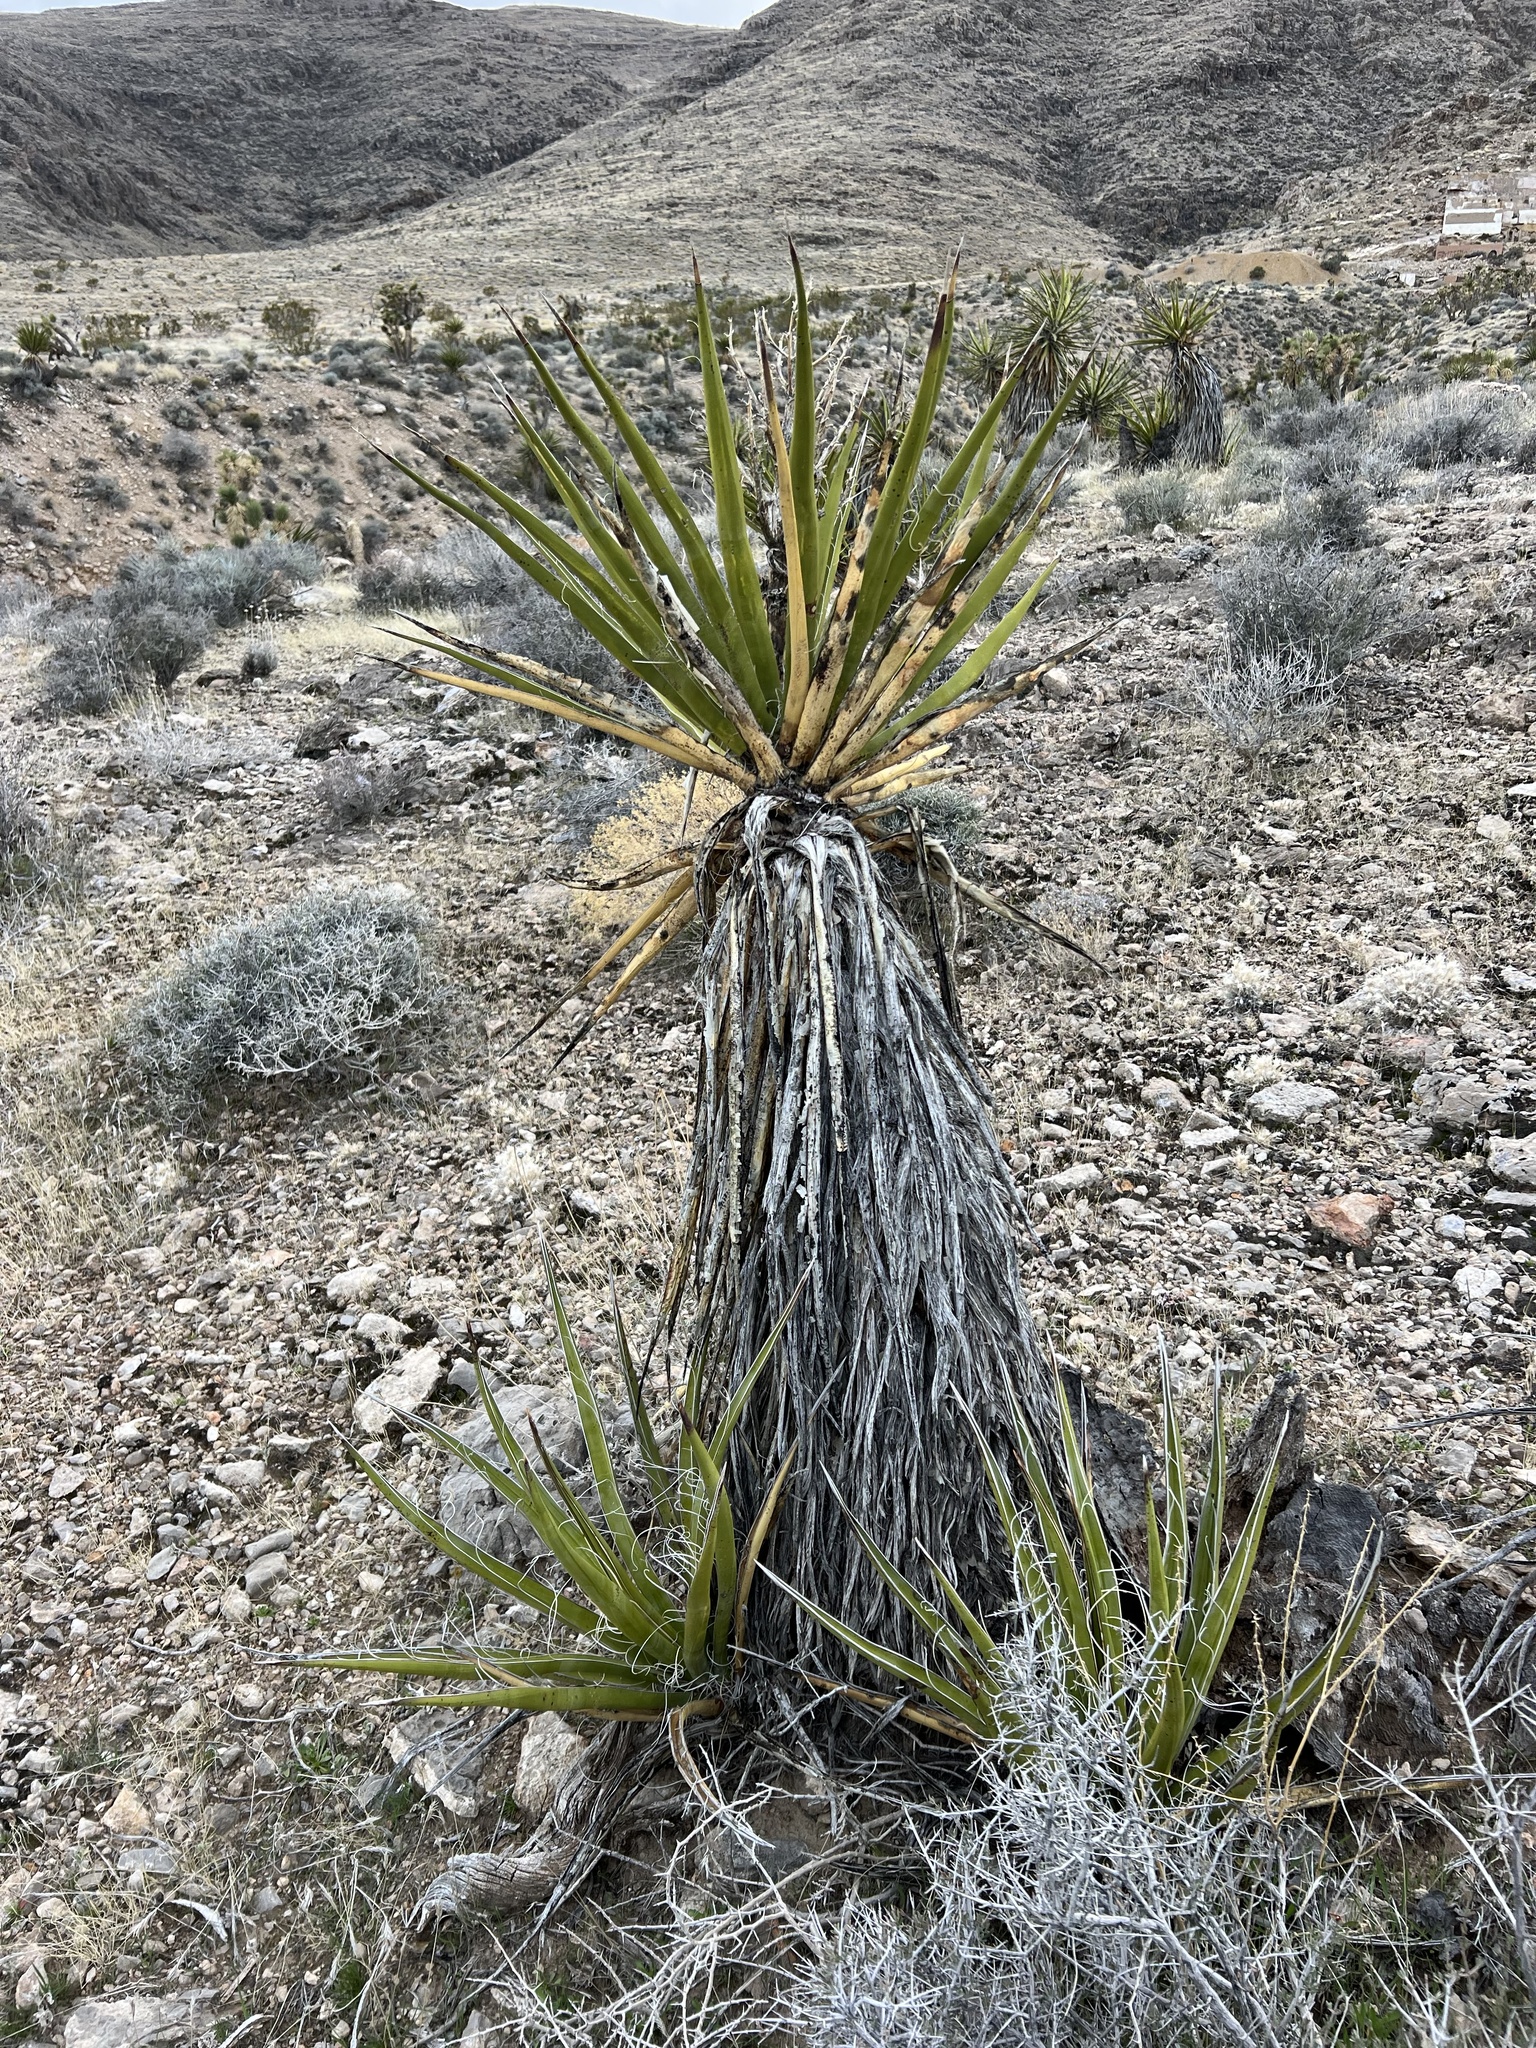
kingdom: Plantae
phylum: Tracheophyta
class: Liliopsida
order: Asparagales
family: Asparagaceae
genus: Yucca
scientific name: Yucca schidigera
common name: Mojave yucca
